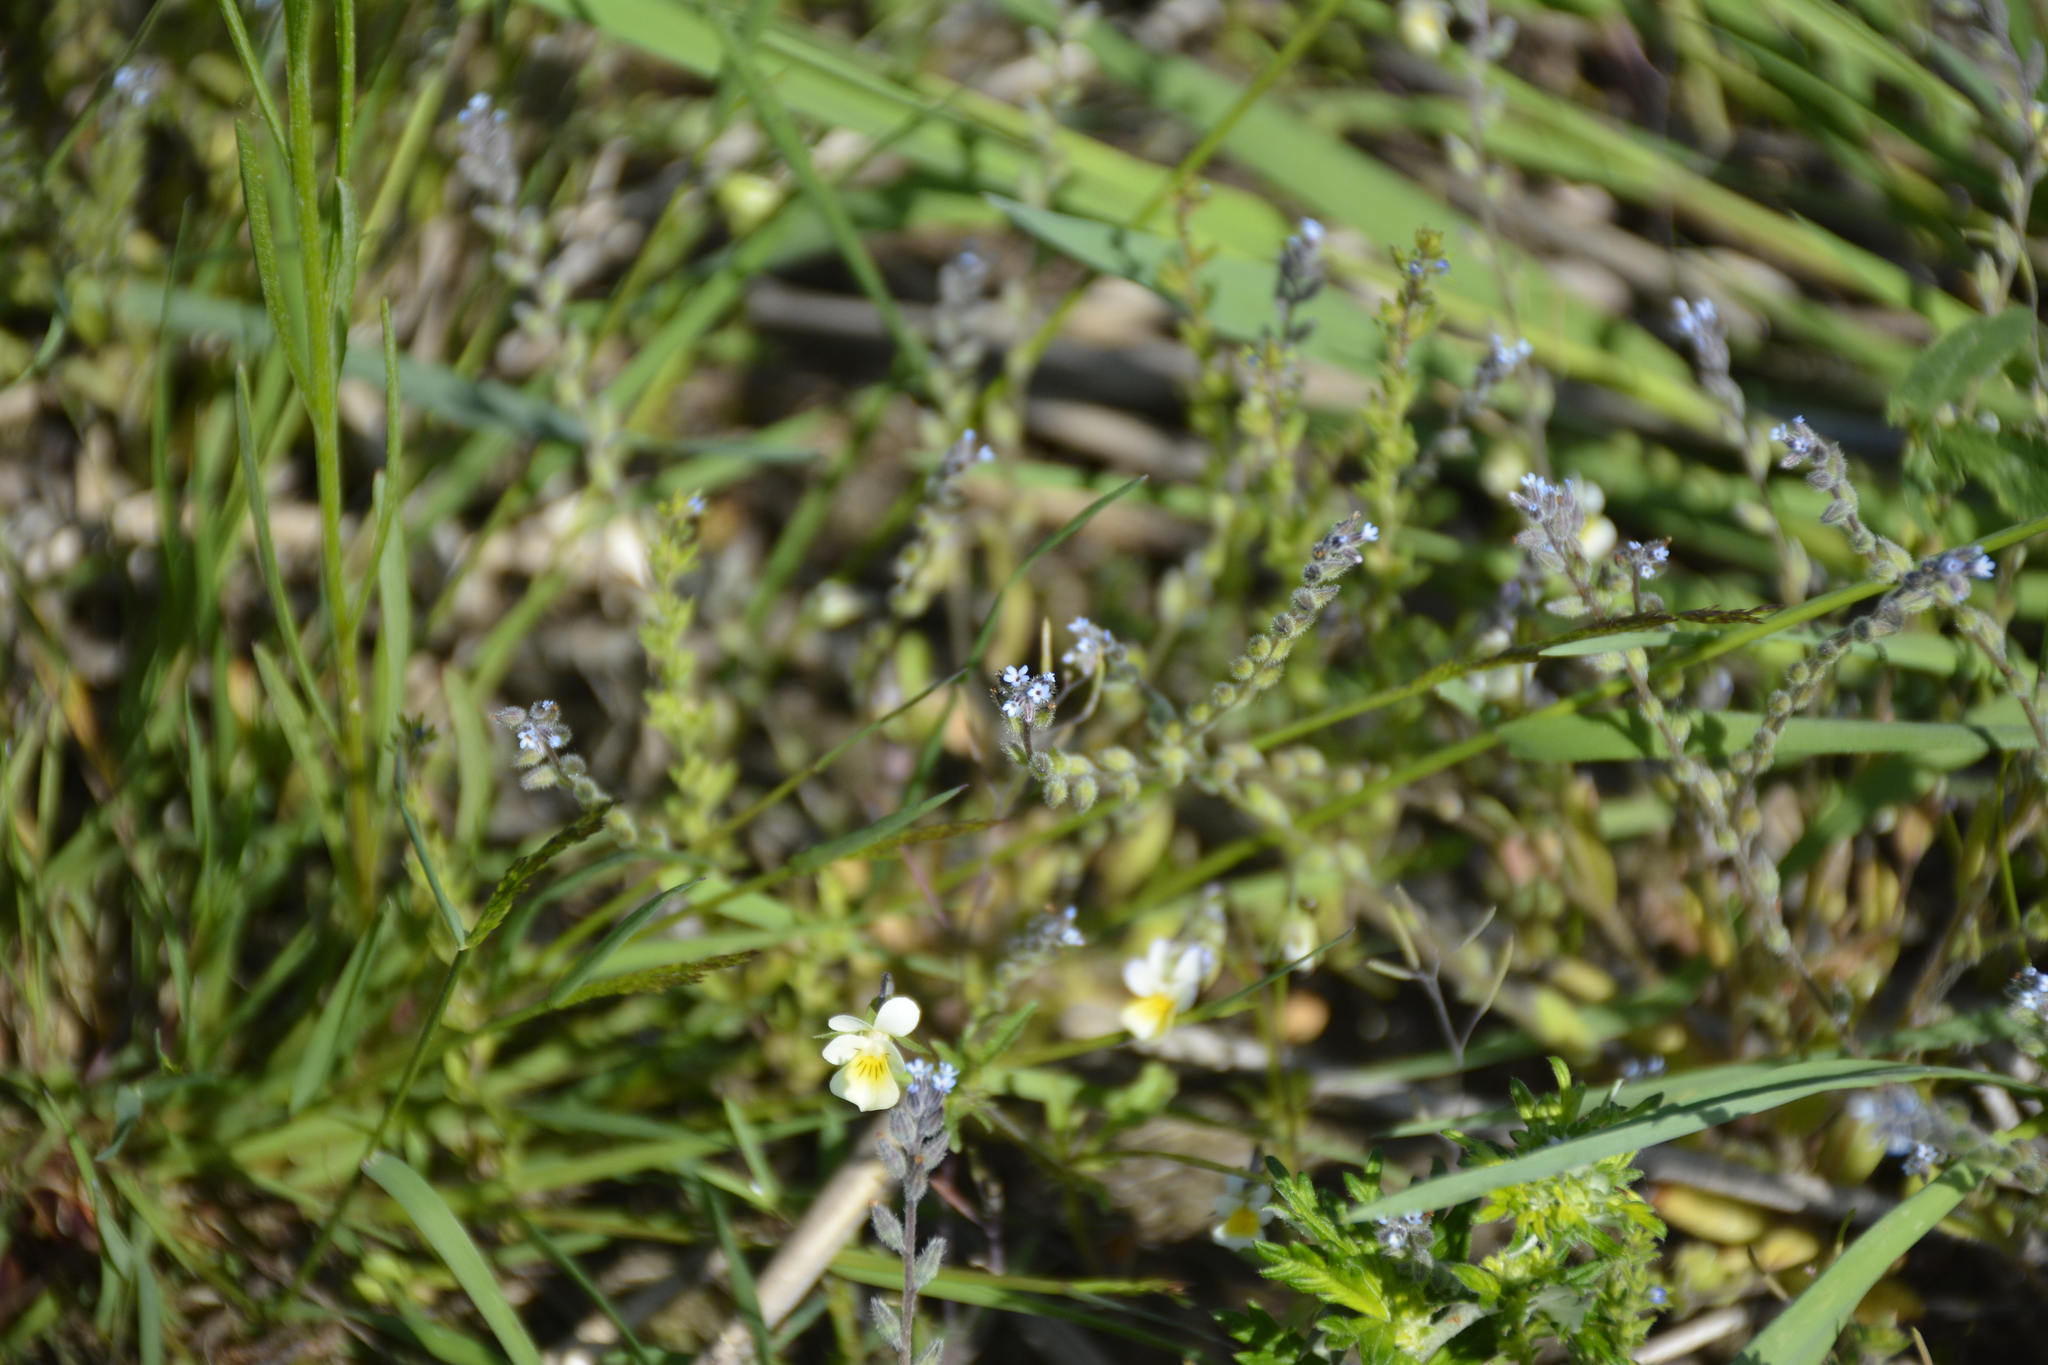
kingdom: Plantae
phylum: Tracheophyta
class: Magnoliopsida
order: Boraginales
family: Boraginaceae
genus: Myosotis
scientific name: Myosotis stricta
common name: Strict forget-me-not
